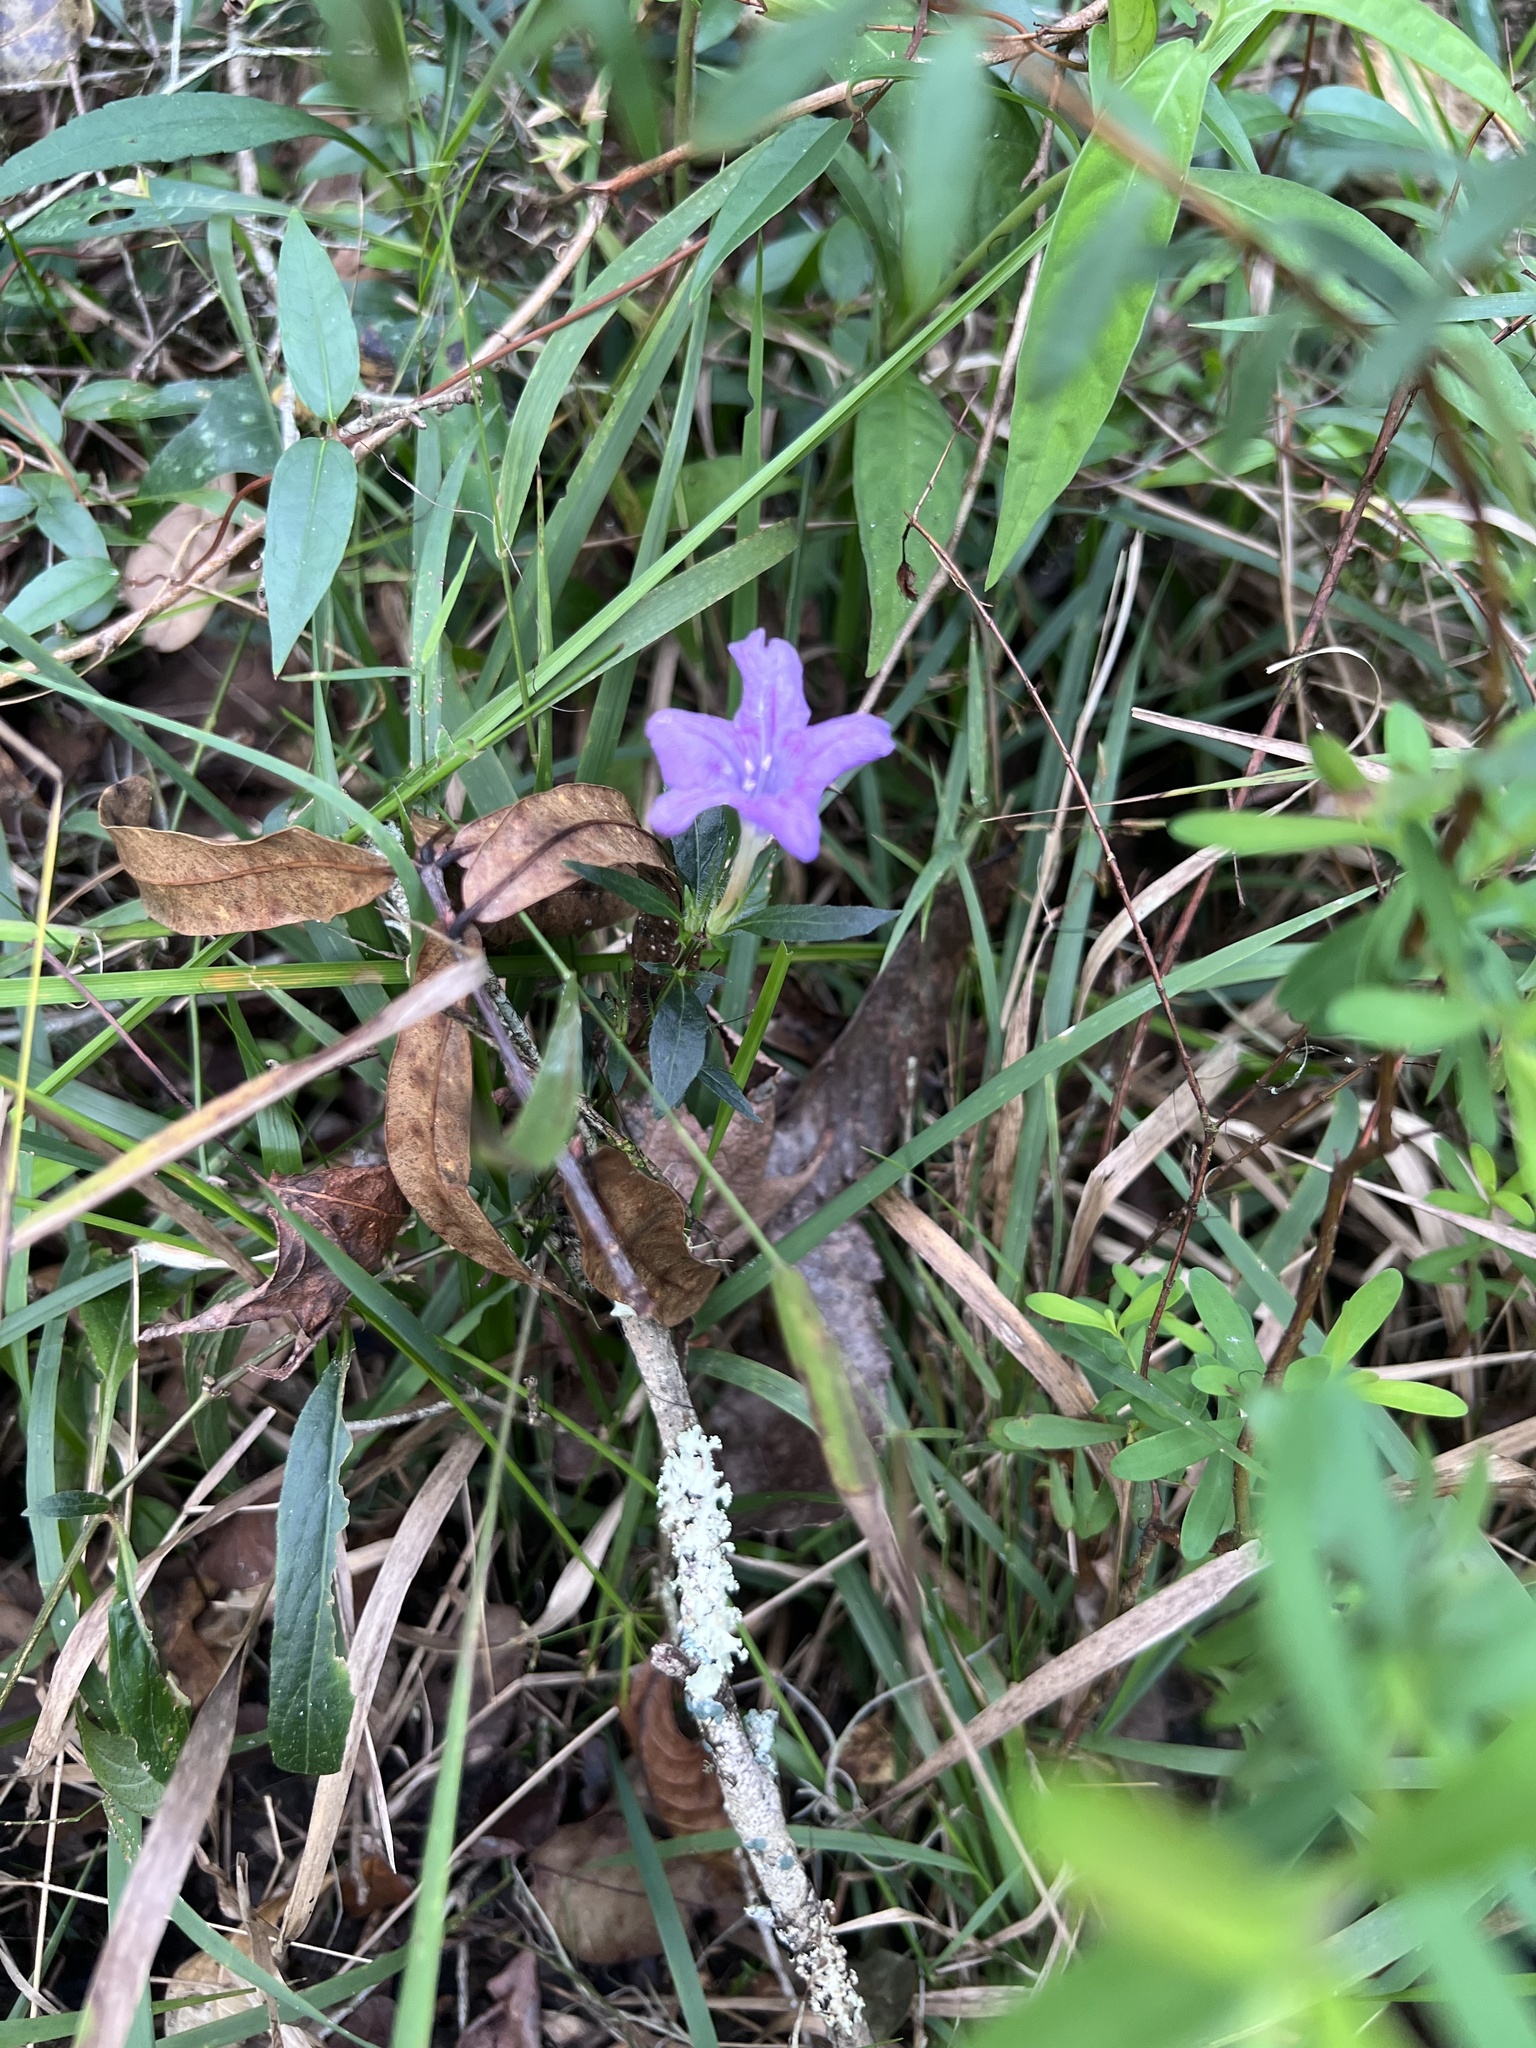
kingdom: Plantae
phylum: Tracheophyta
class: Magnoliopsida
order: Lamiales
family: Acanthaceae
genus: Ruellia
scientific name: Ruellia caroliniensis
